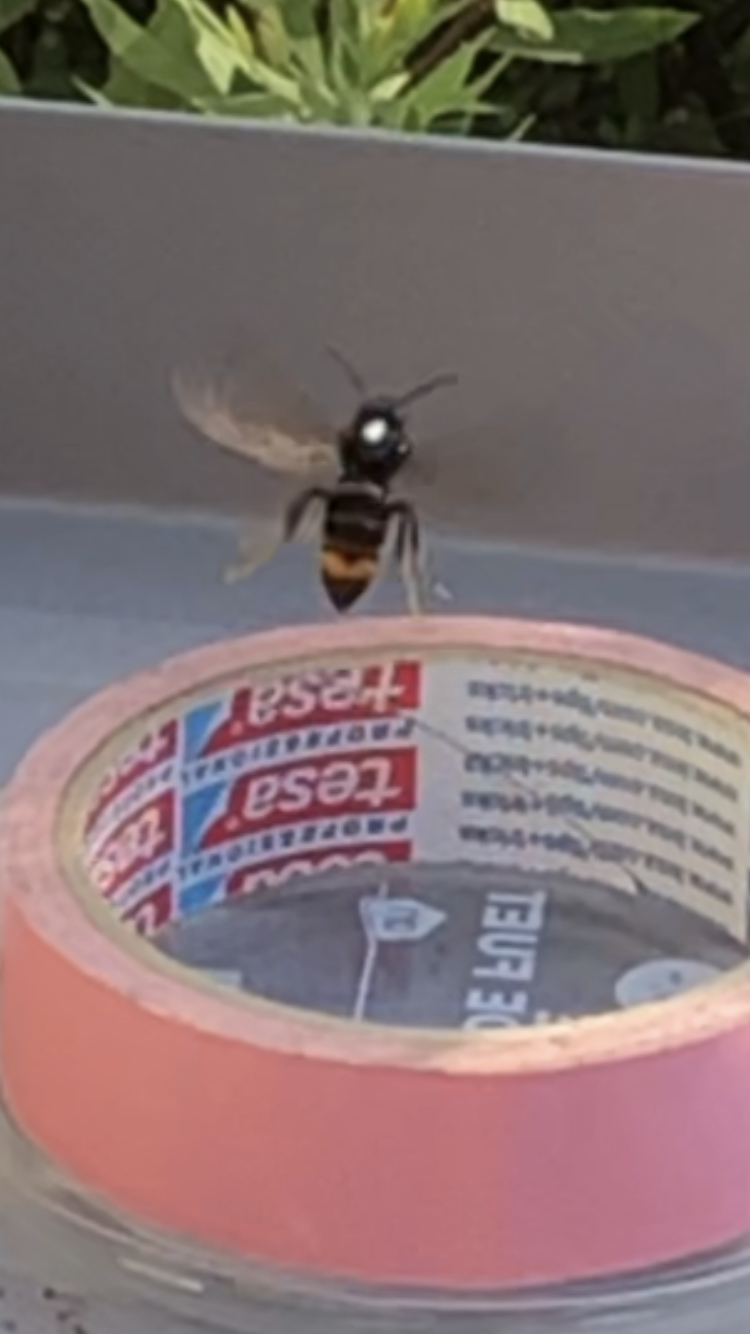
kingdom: Animalia
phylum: Arthropoda
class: Insecta
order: Hymenoptera
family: Vespidae
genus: Vespa
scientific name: Vespa velutina
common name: Asian hornet
